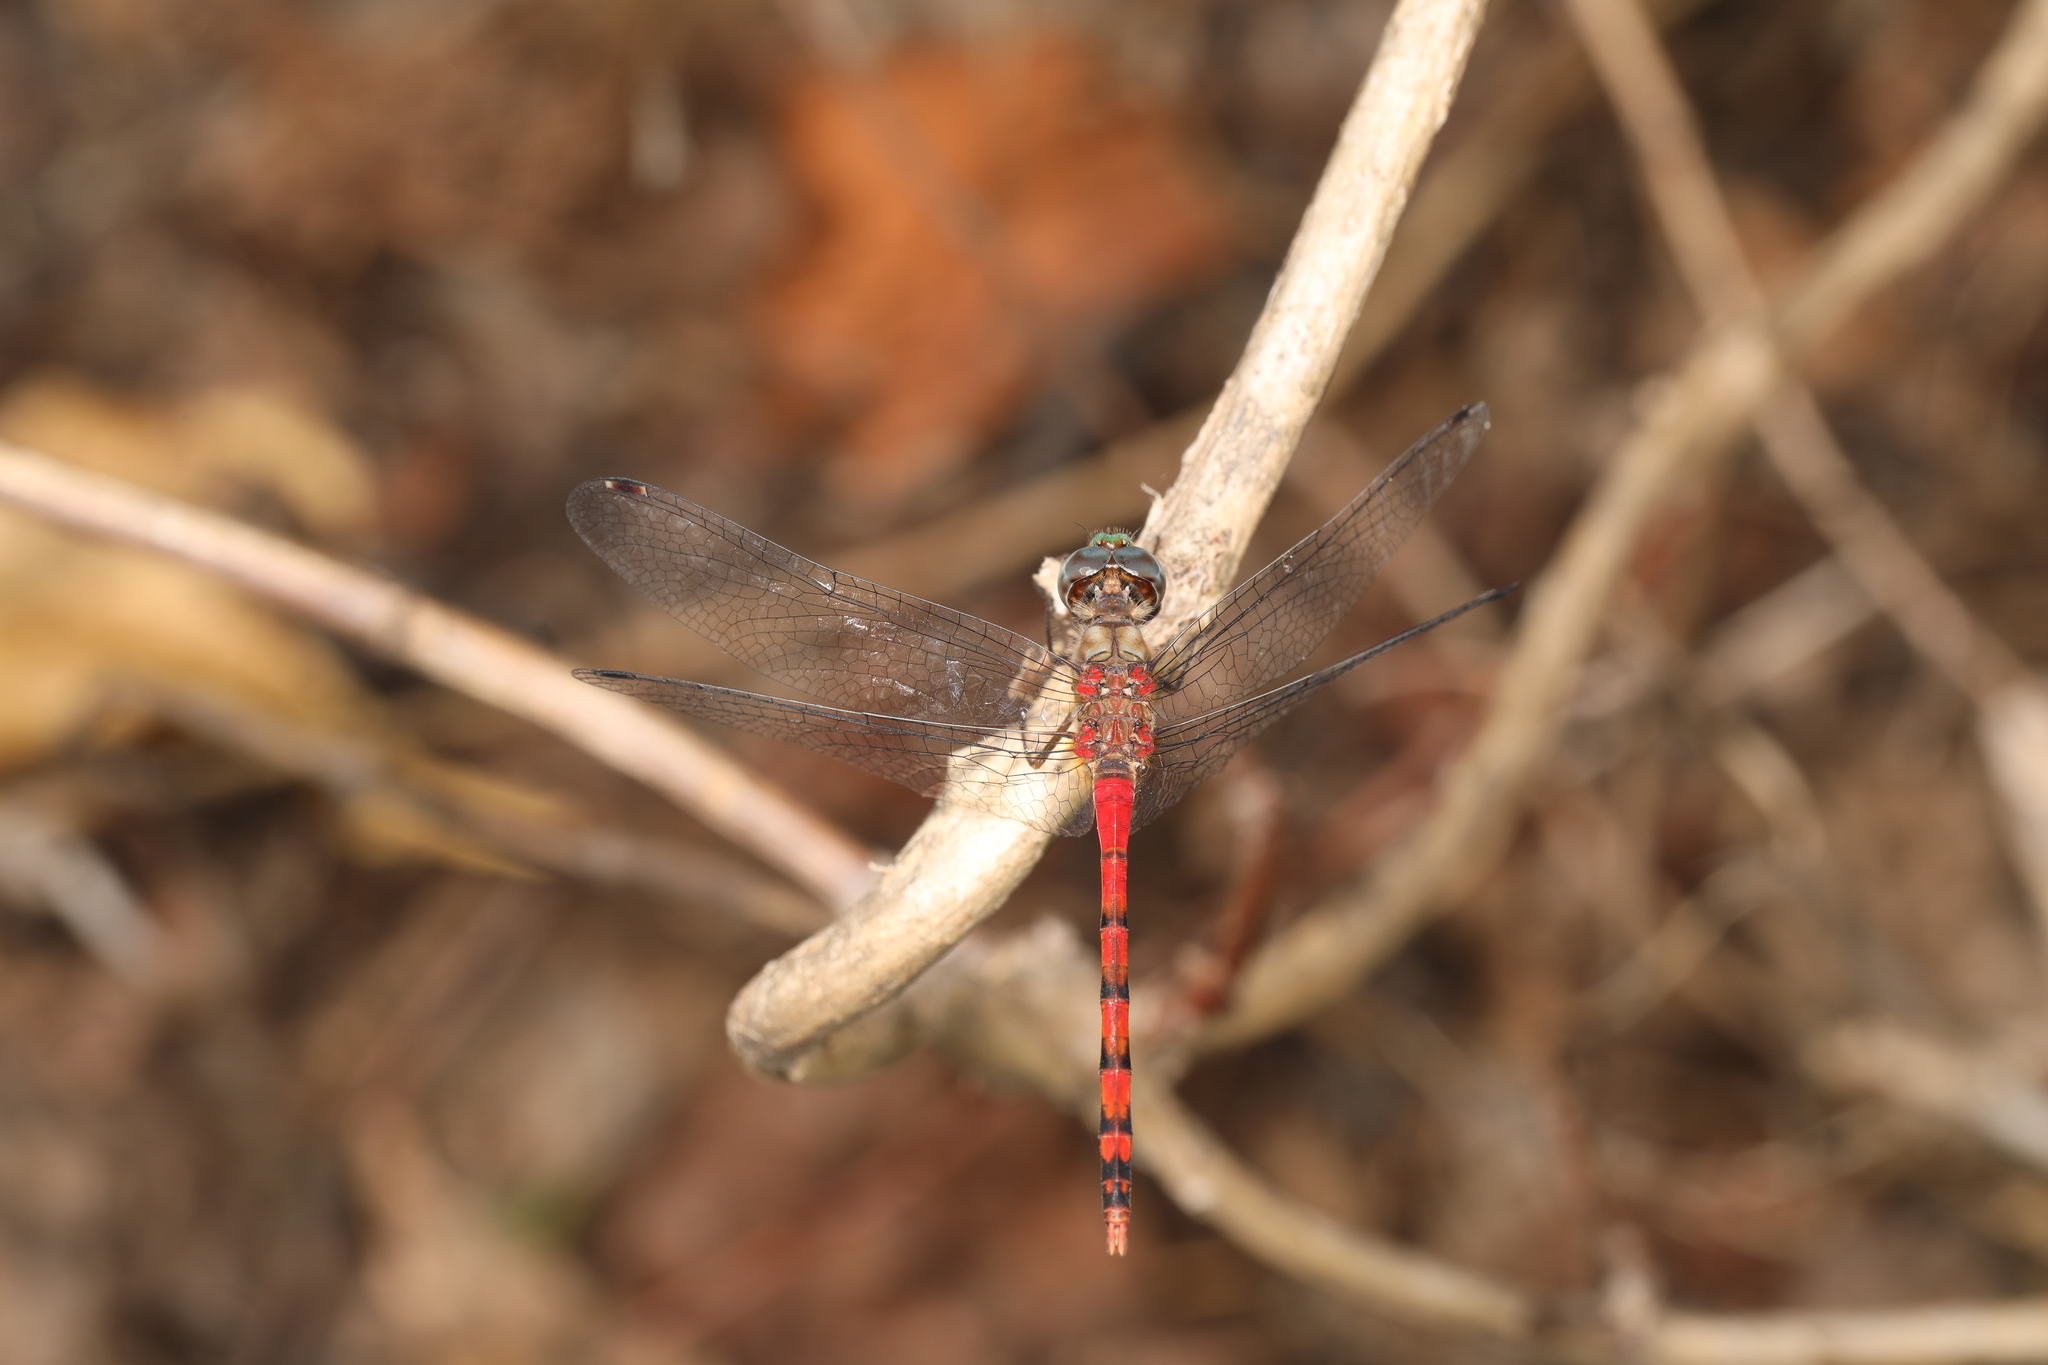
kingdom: Animalia
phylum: Arthropoda
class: Insecta
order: Odonata
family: Libellulidae
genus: Sympetrum
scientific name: Sympetrum ambiguum
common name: Blue-faced meadowhawk
